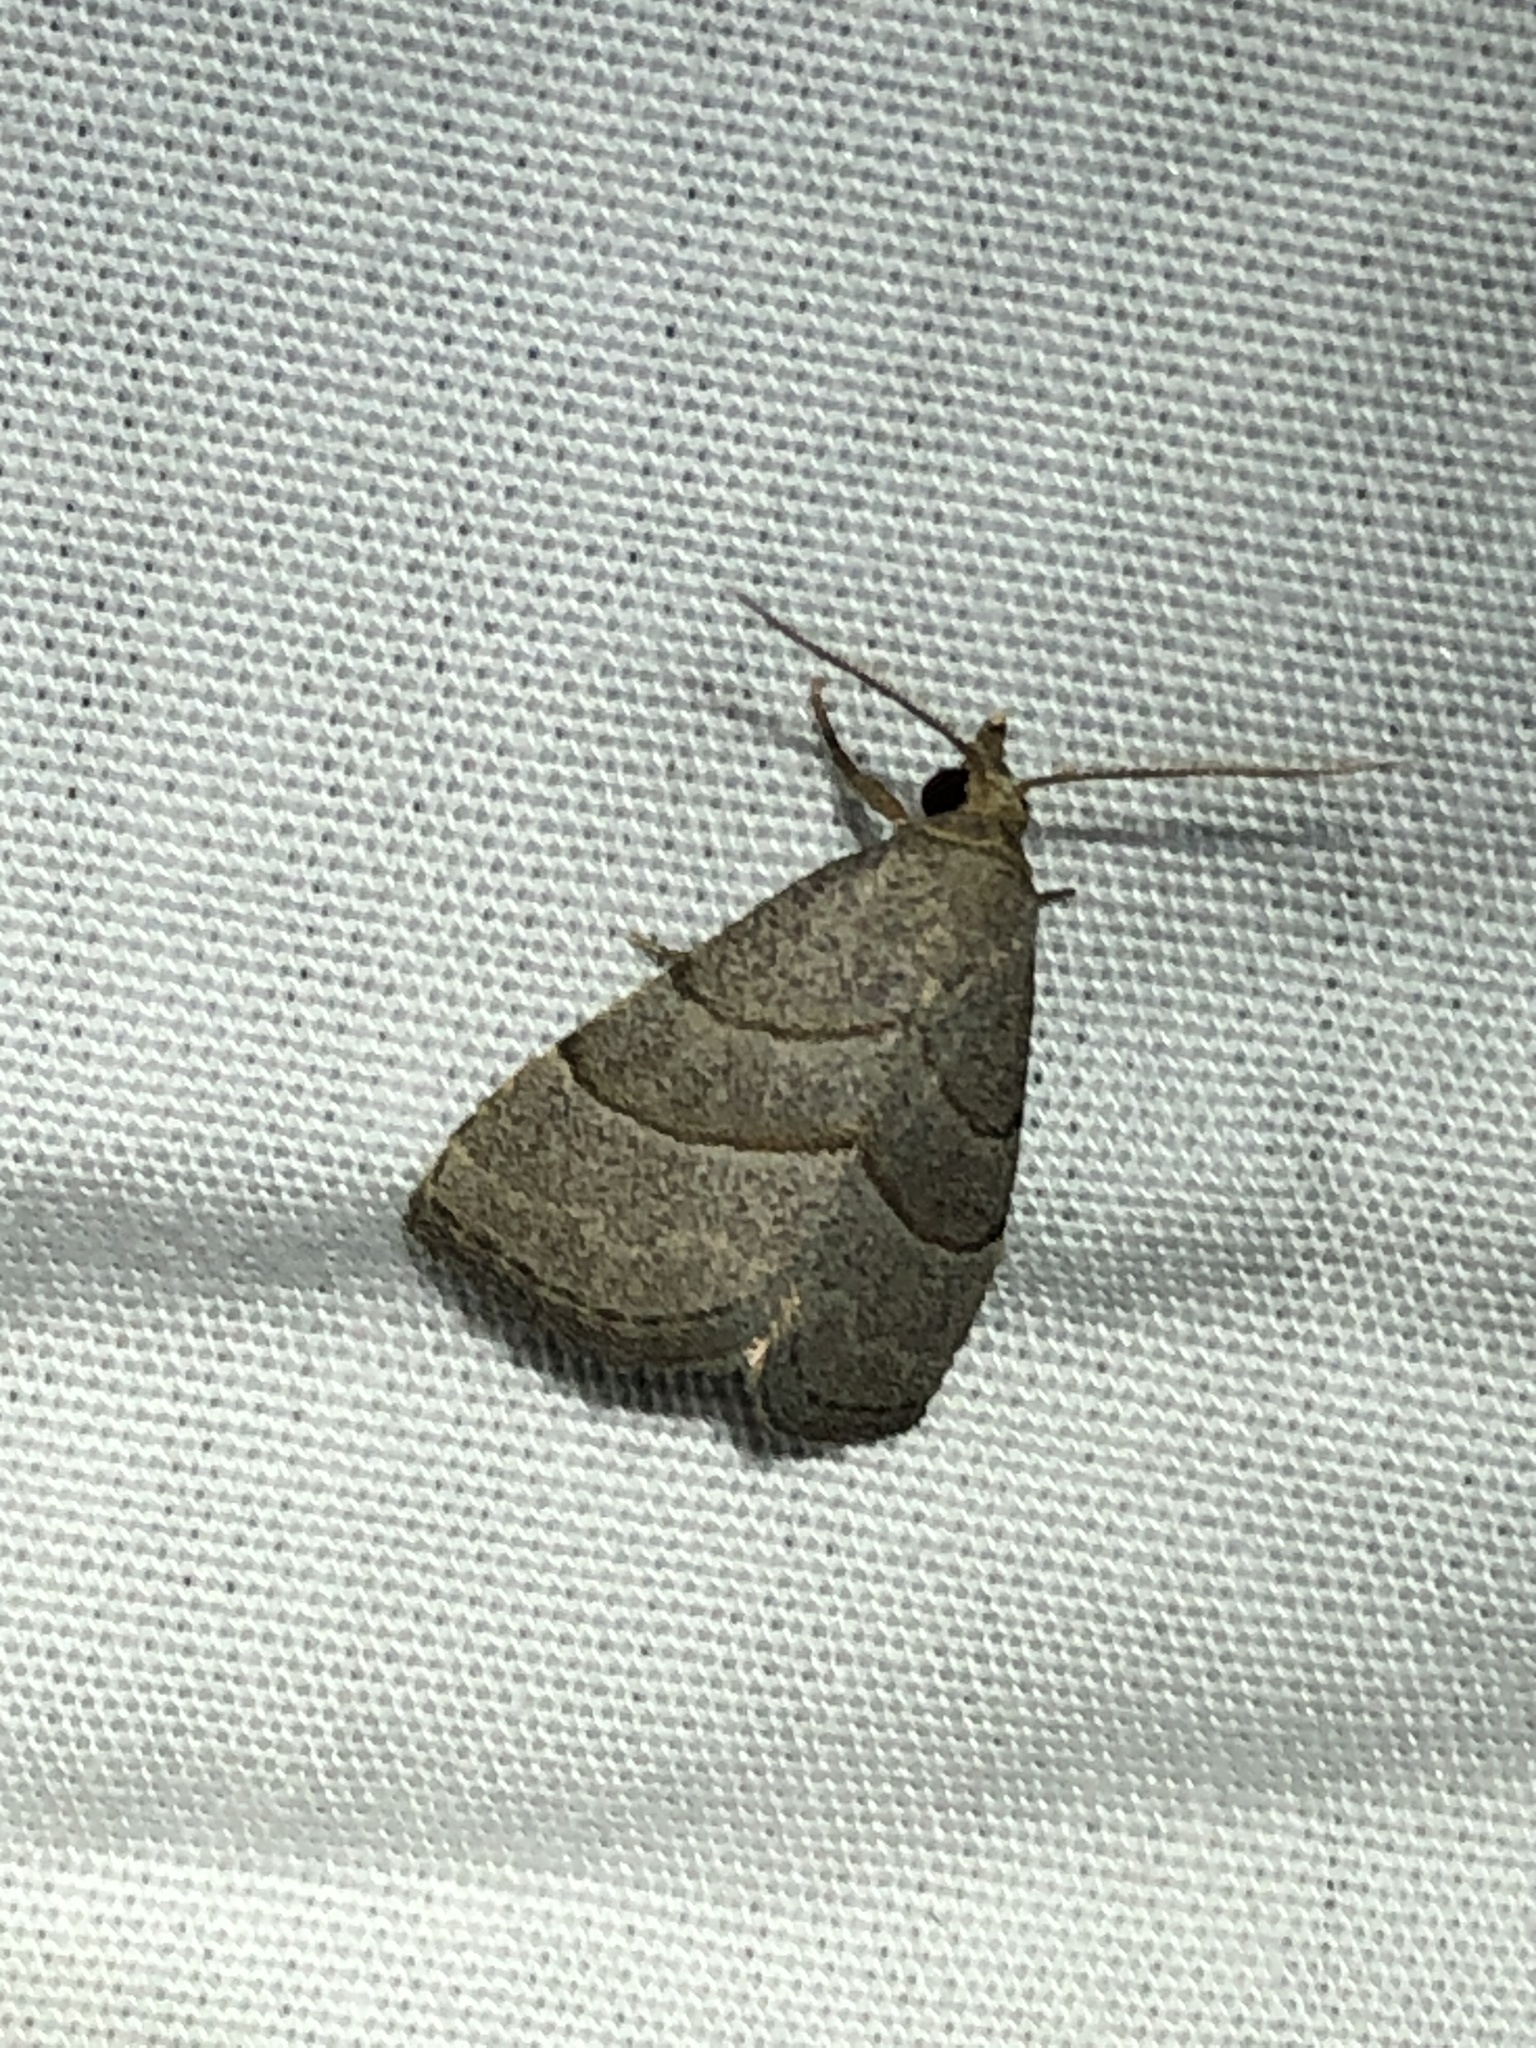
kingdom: Animalia
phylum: Arthropoda
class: Insecta
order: Lepidoptera
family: Erebidae
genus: Zelicodes
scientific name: Zelicodes linearis
